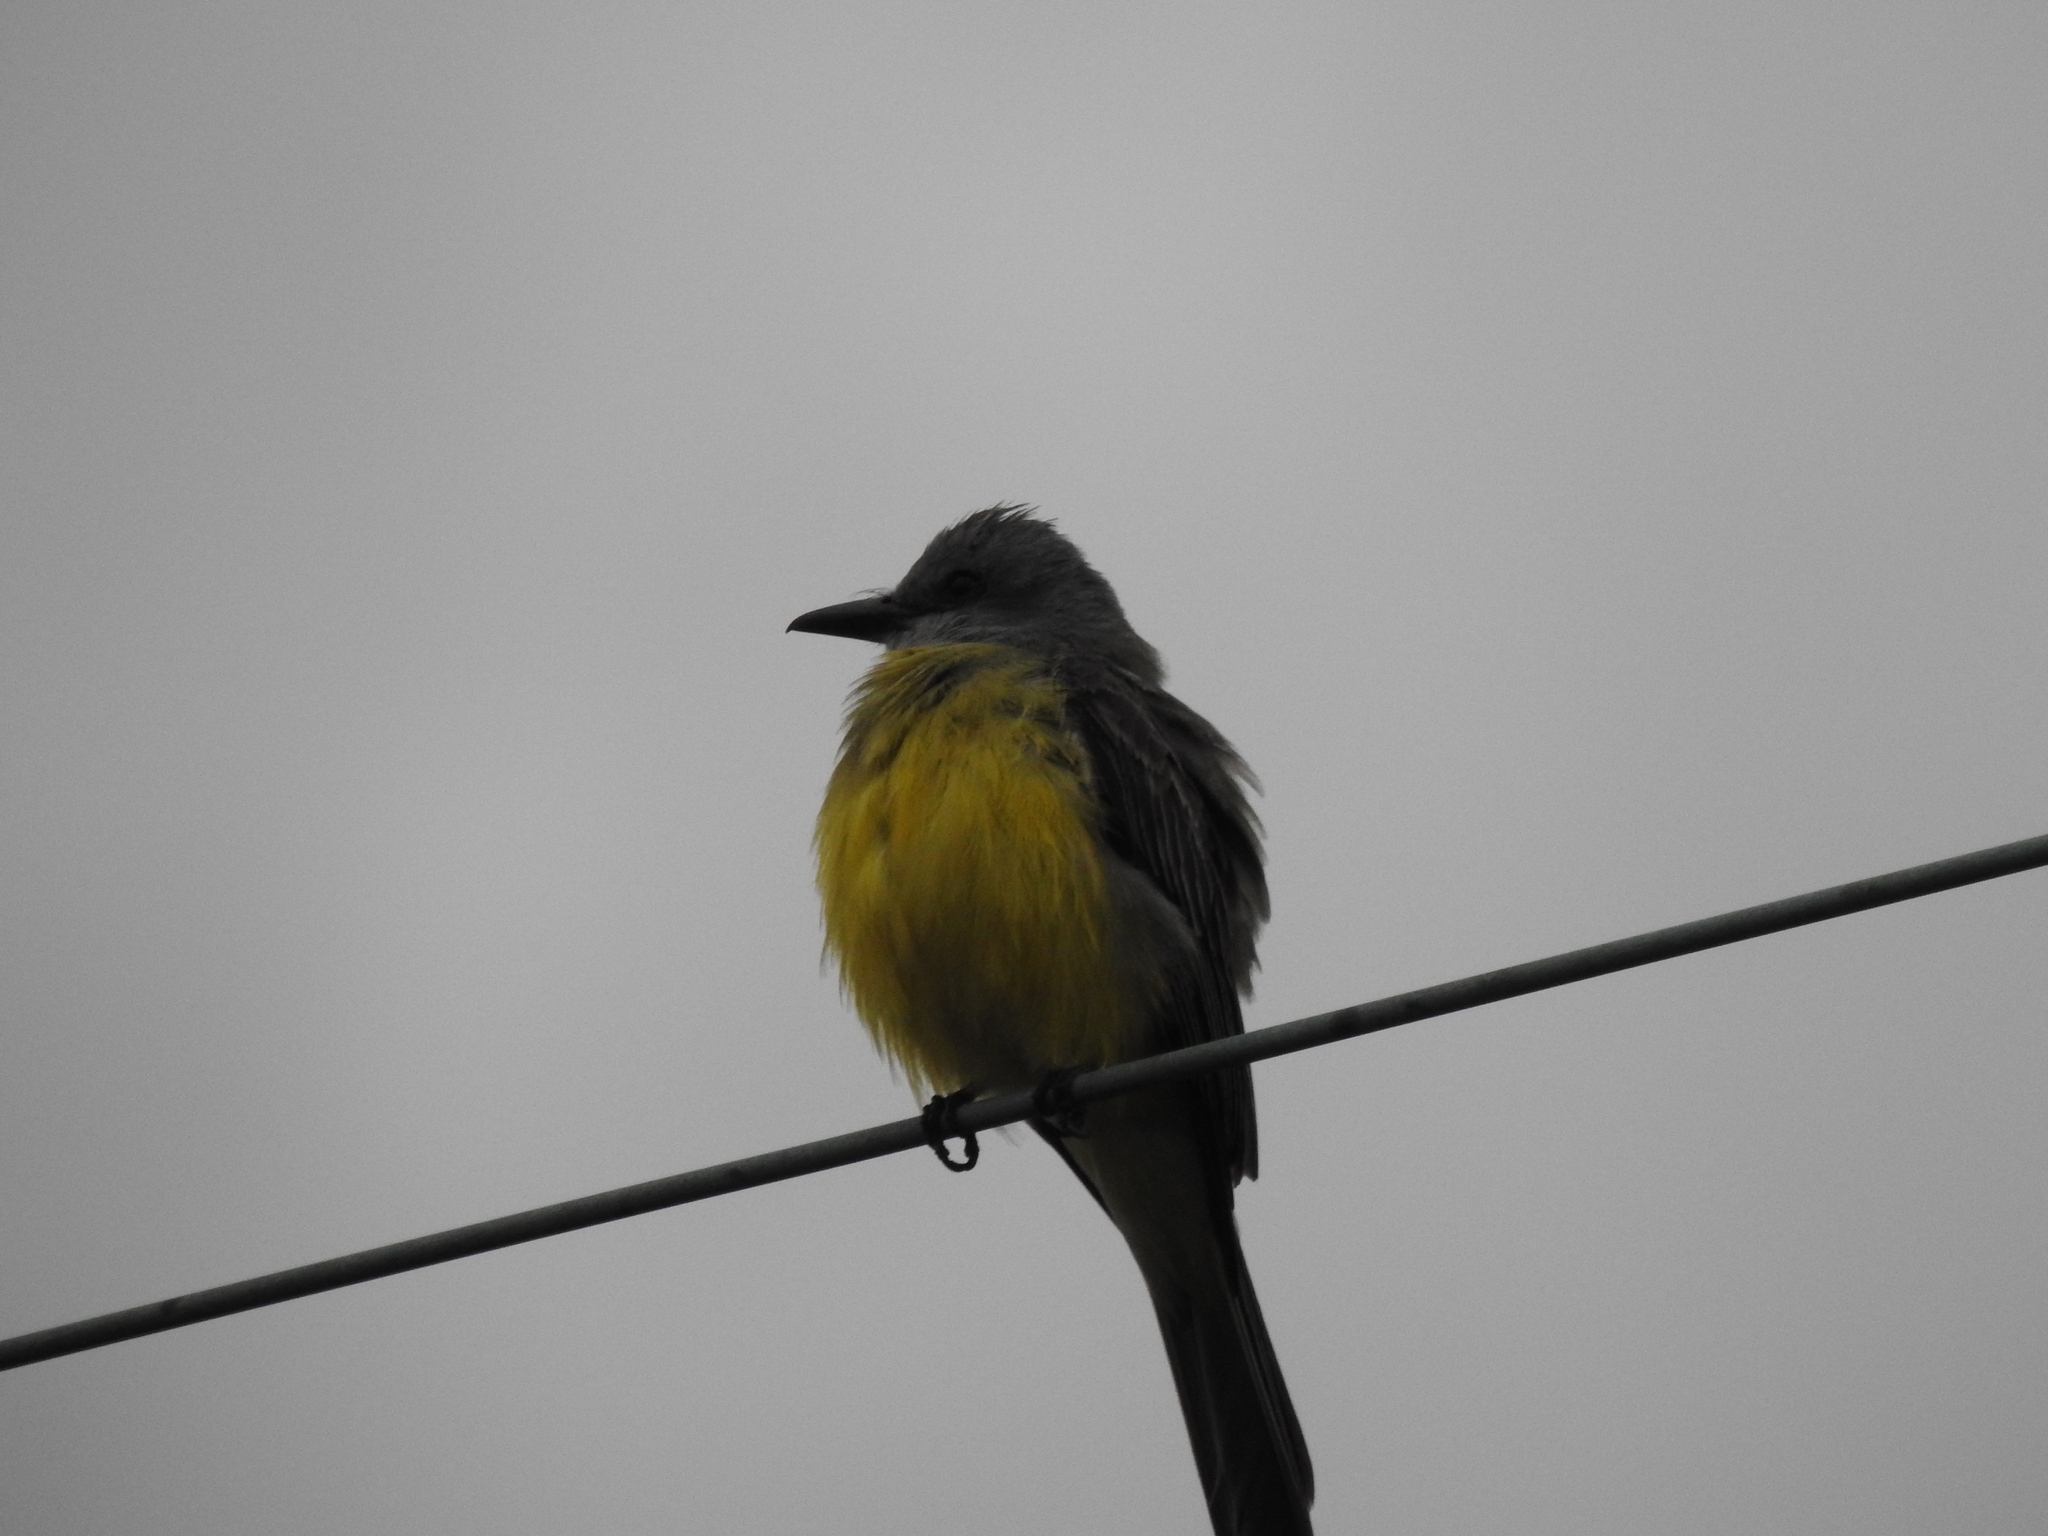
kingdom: Animalia
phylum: Chordata
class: Aves
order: Passeriformes
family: Tyrannidae
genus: Tyrannus
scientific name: Tyrannus melancholicus
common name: Tropical kingbird
